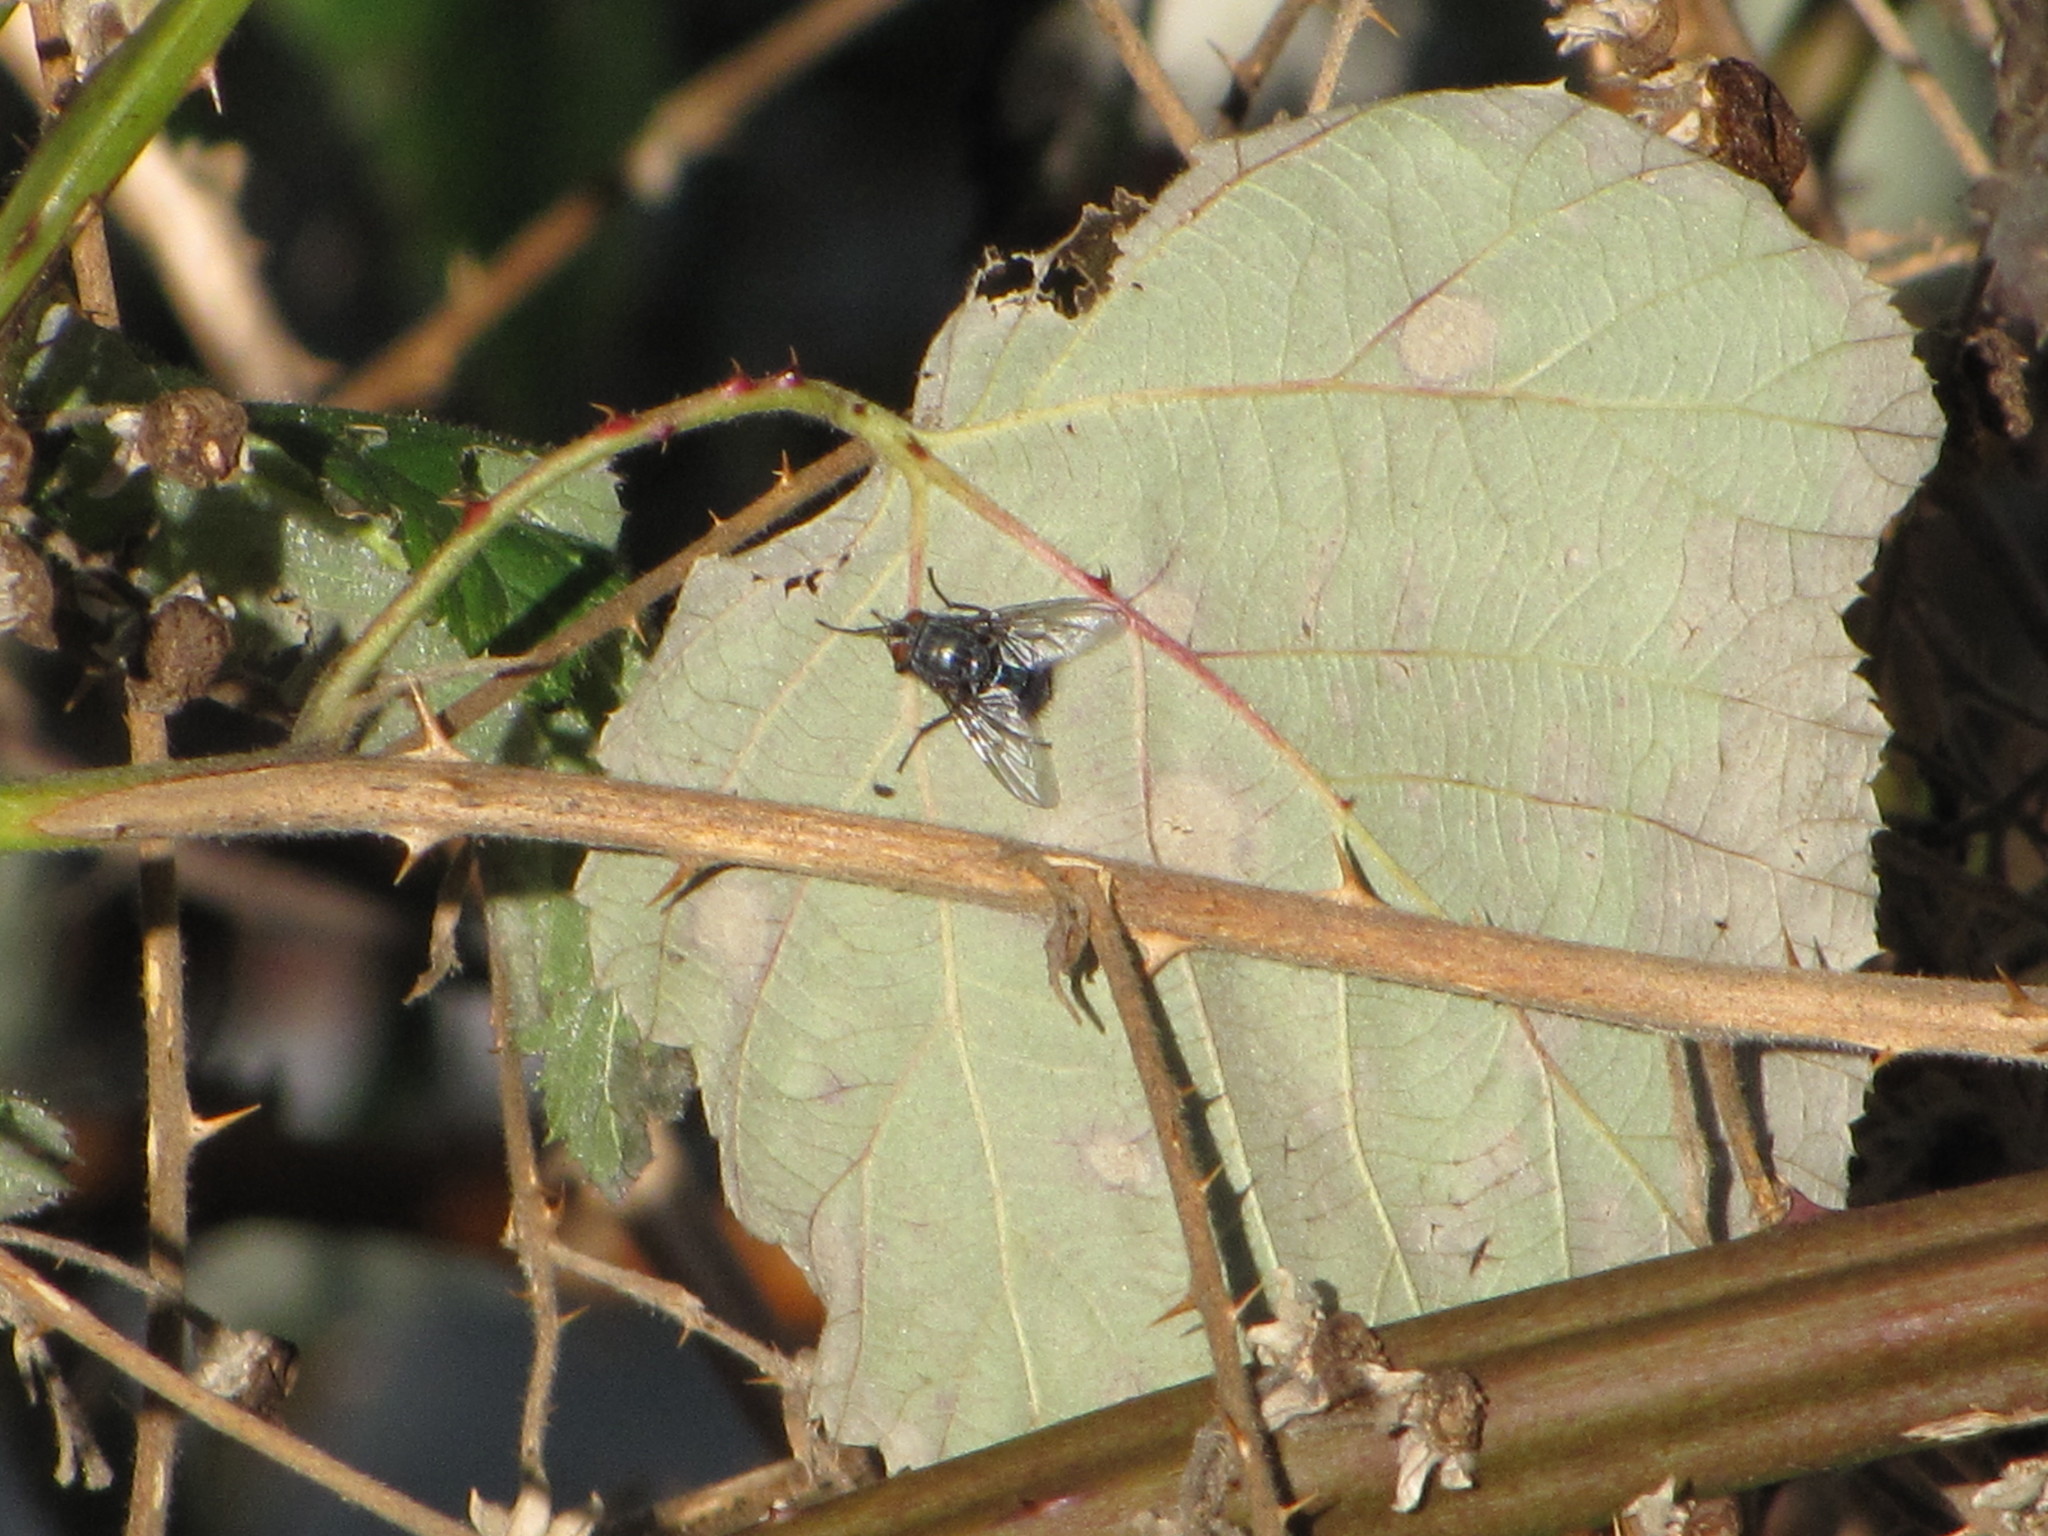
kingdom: Animalia
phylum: Arthropoda
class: Insecta
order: Diptera
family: Calliphoridae
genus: Calliphora
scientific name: Calliphora vicina
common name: Common blow flie
